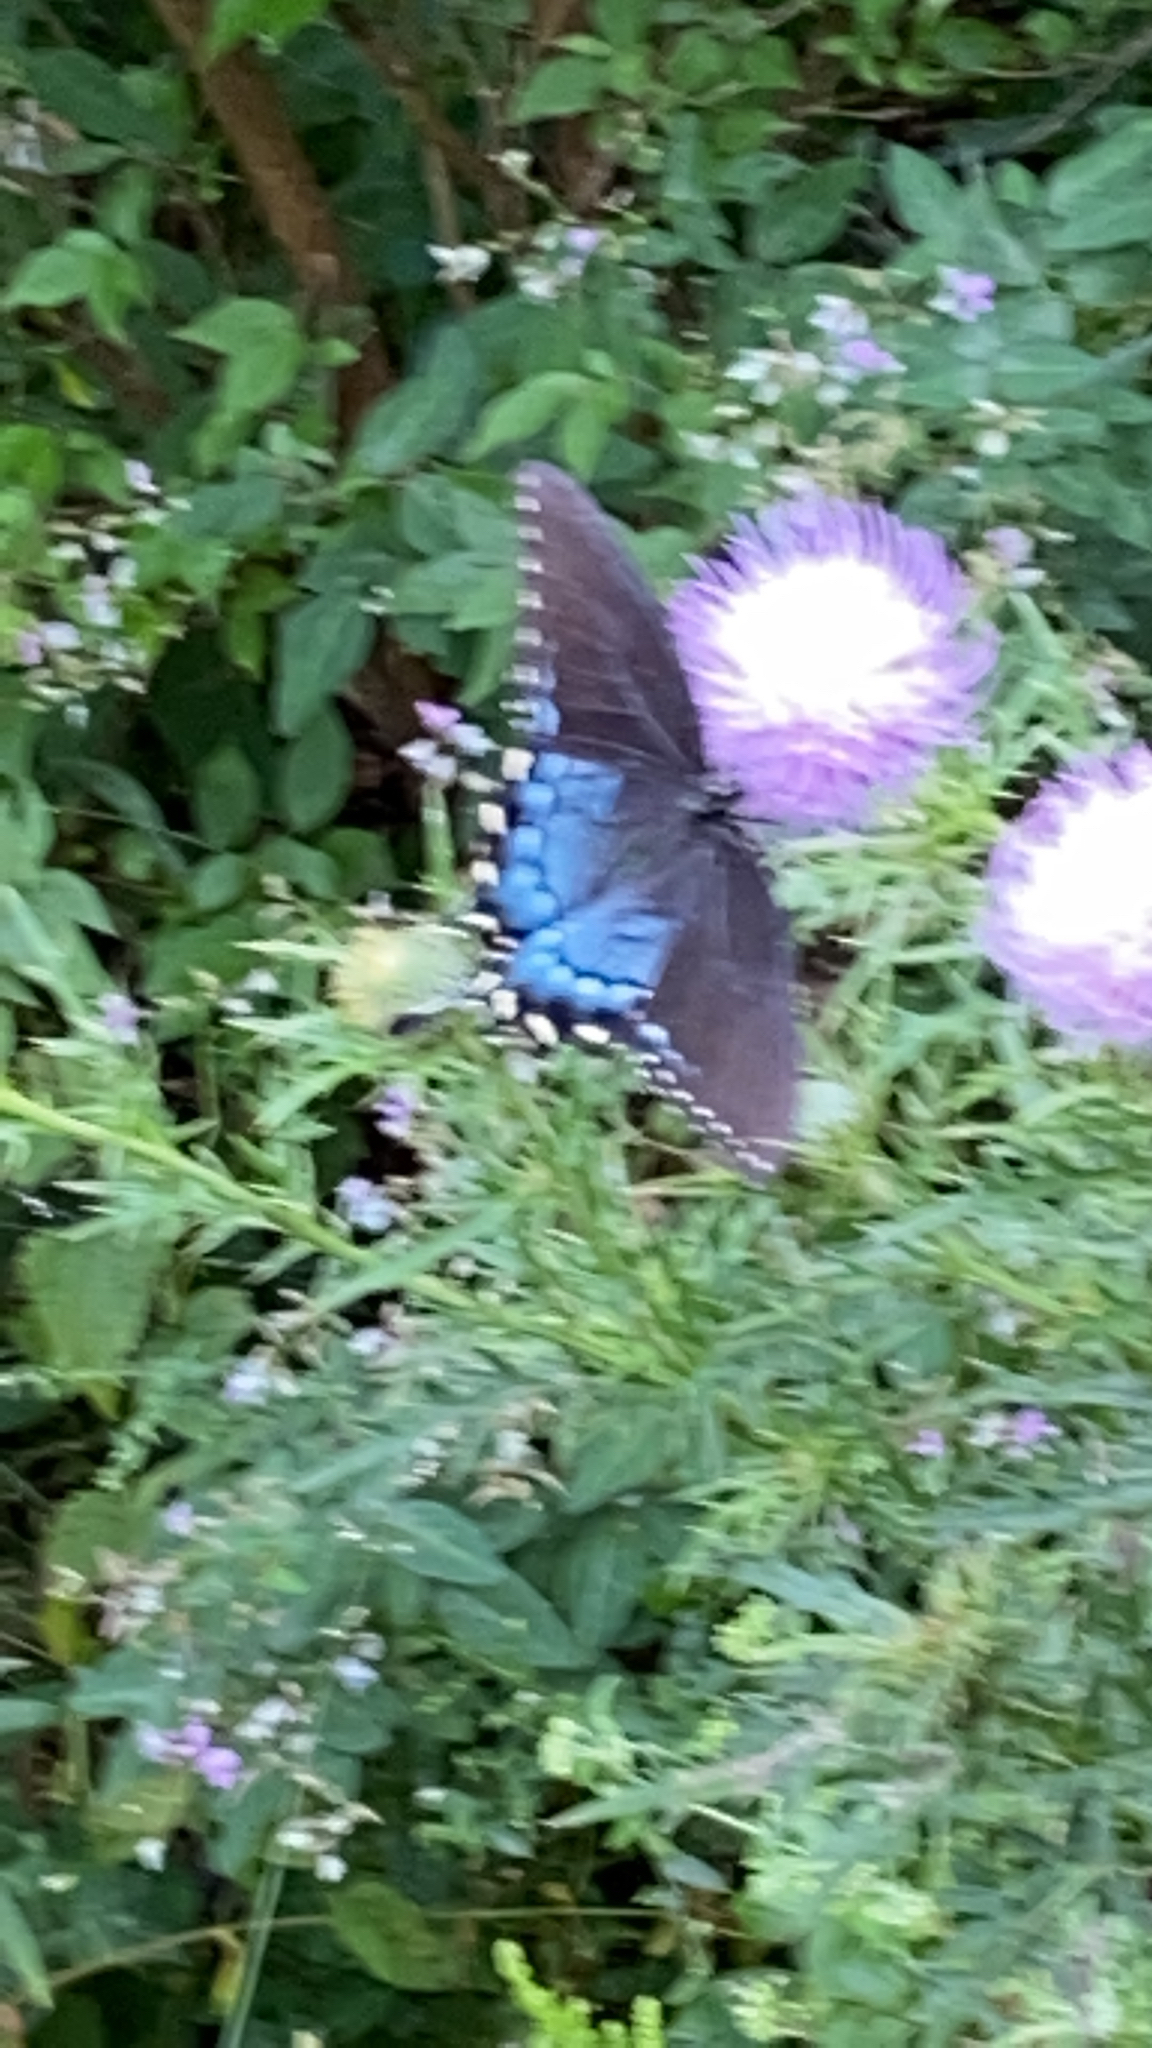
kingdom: Animalia
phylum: Arthropoda
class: Insecta
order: Lepidoptera
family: Papilionidae
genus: Papilio
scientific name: Papilio glaucus
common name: Tiger swallowtail
